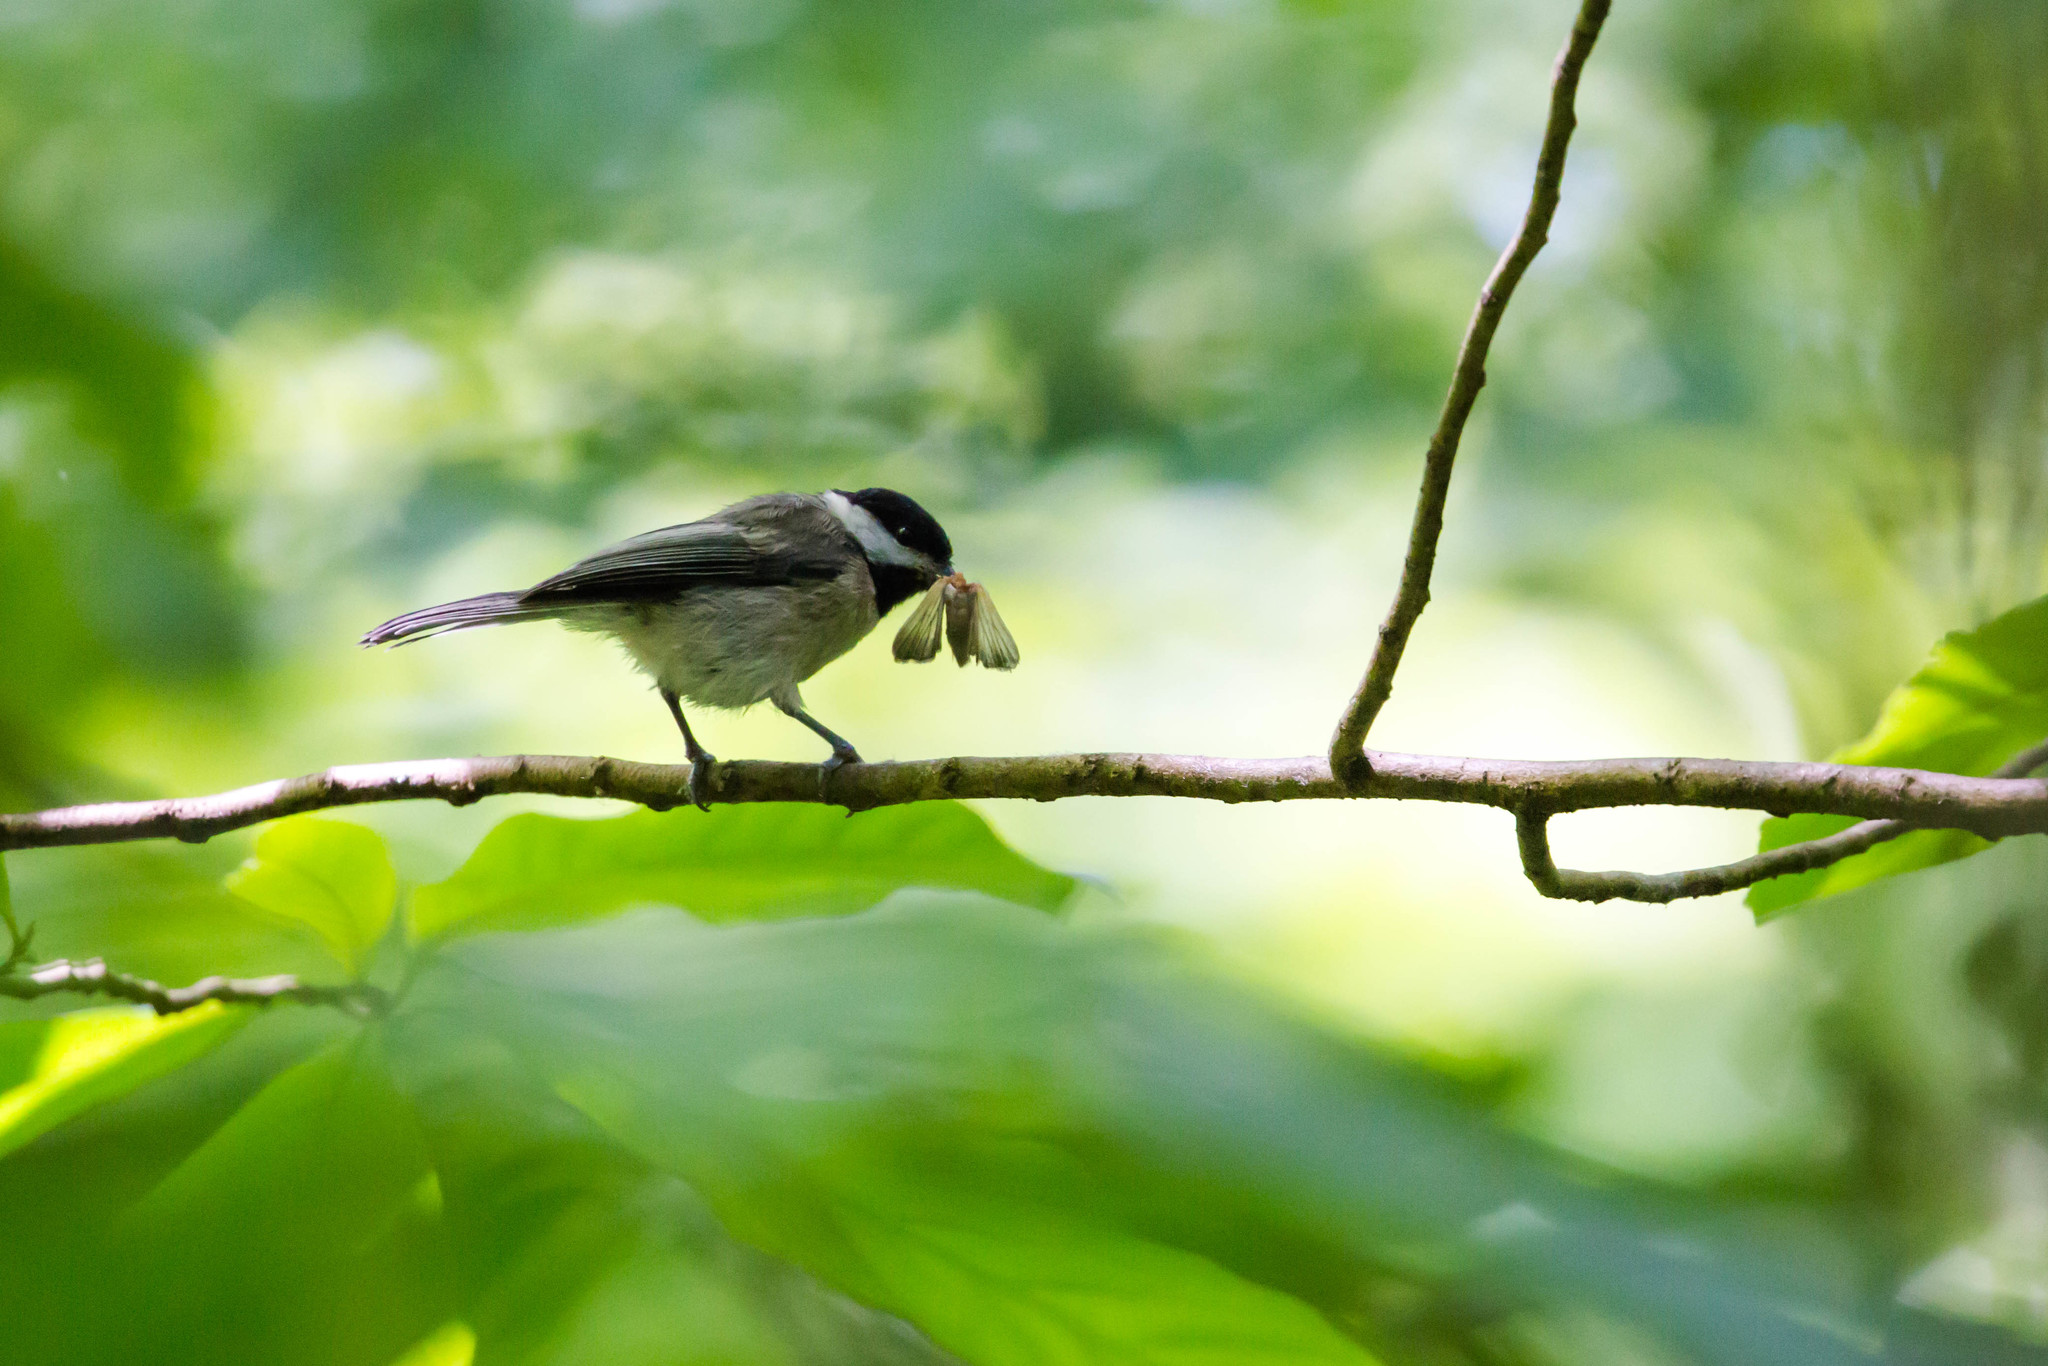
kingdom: Animalia
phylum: Chordata
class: Aves
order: Passeriformes
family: Paridae
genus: Poecile
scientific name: Poecile carolinensis
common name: Carolina chickadee
